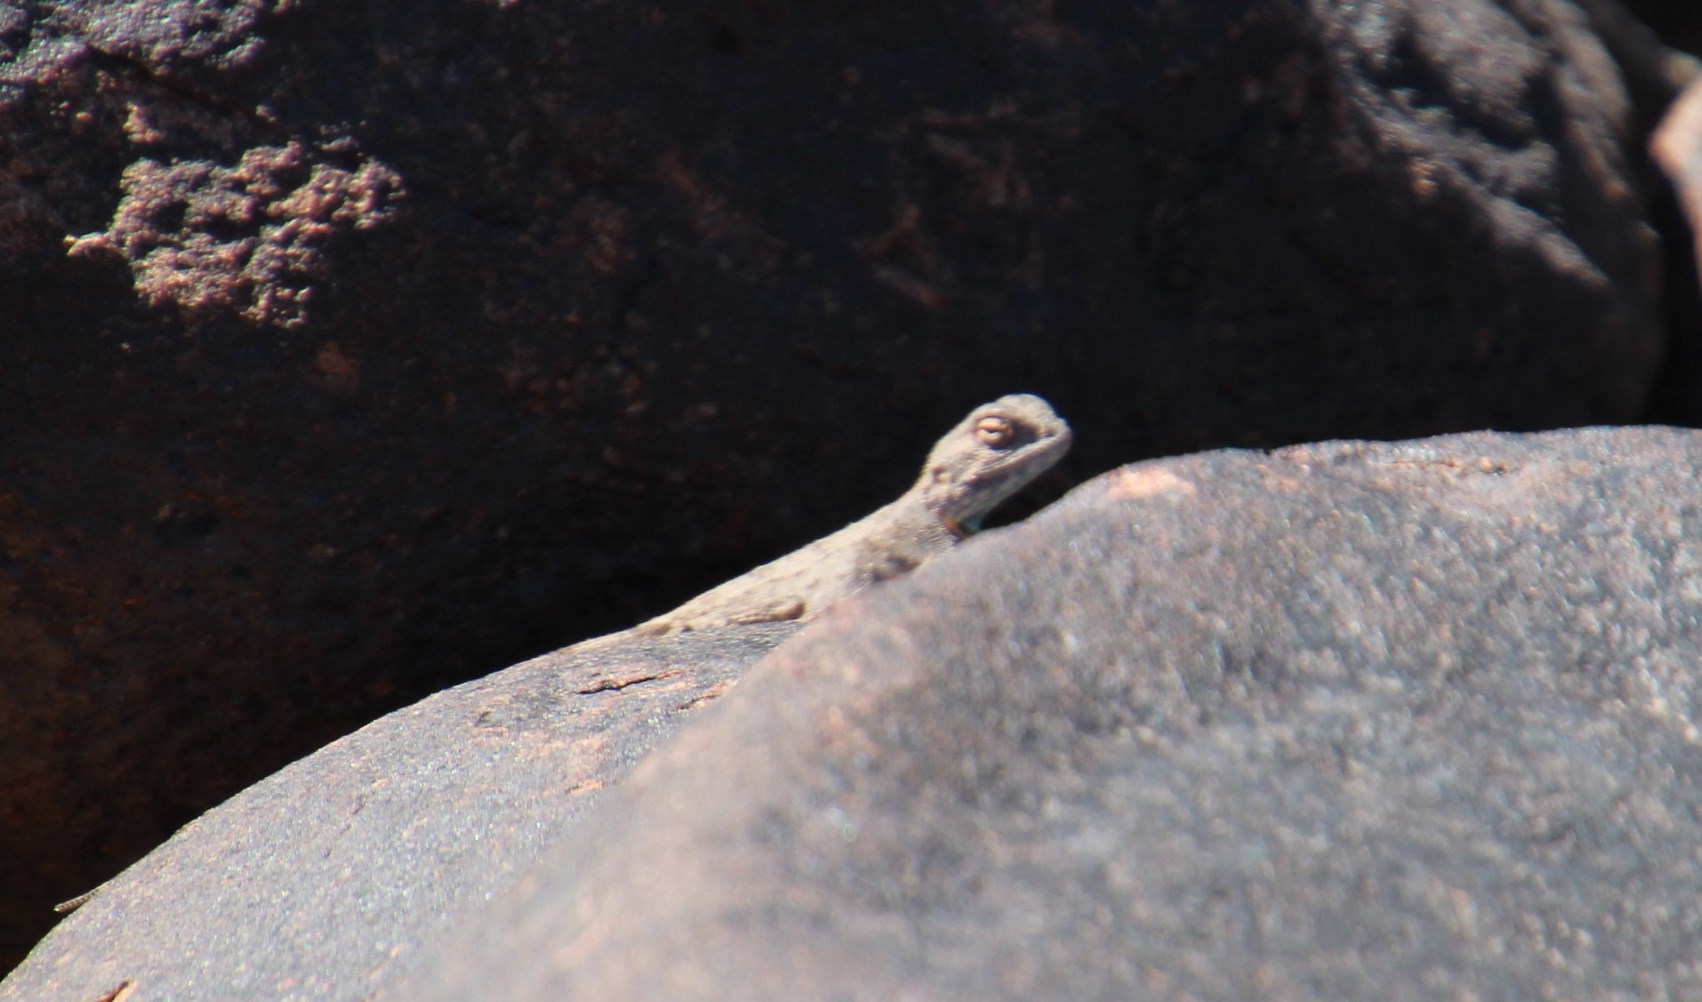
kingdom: Animalia
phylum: Chordata
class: Squamata
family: Agamidae
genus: Agama
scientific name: Agama atra
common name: Southern african rock agama
